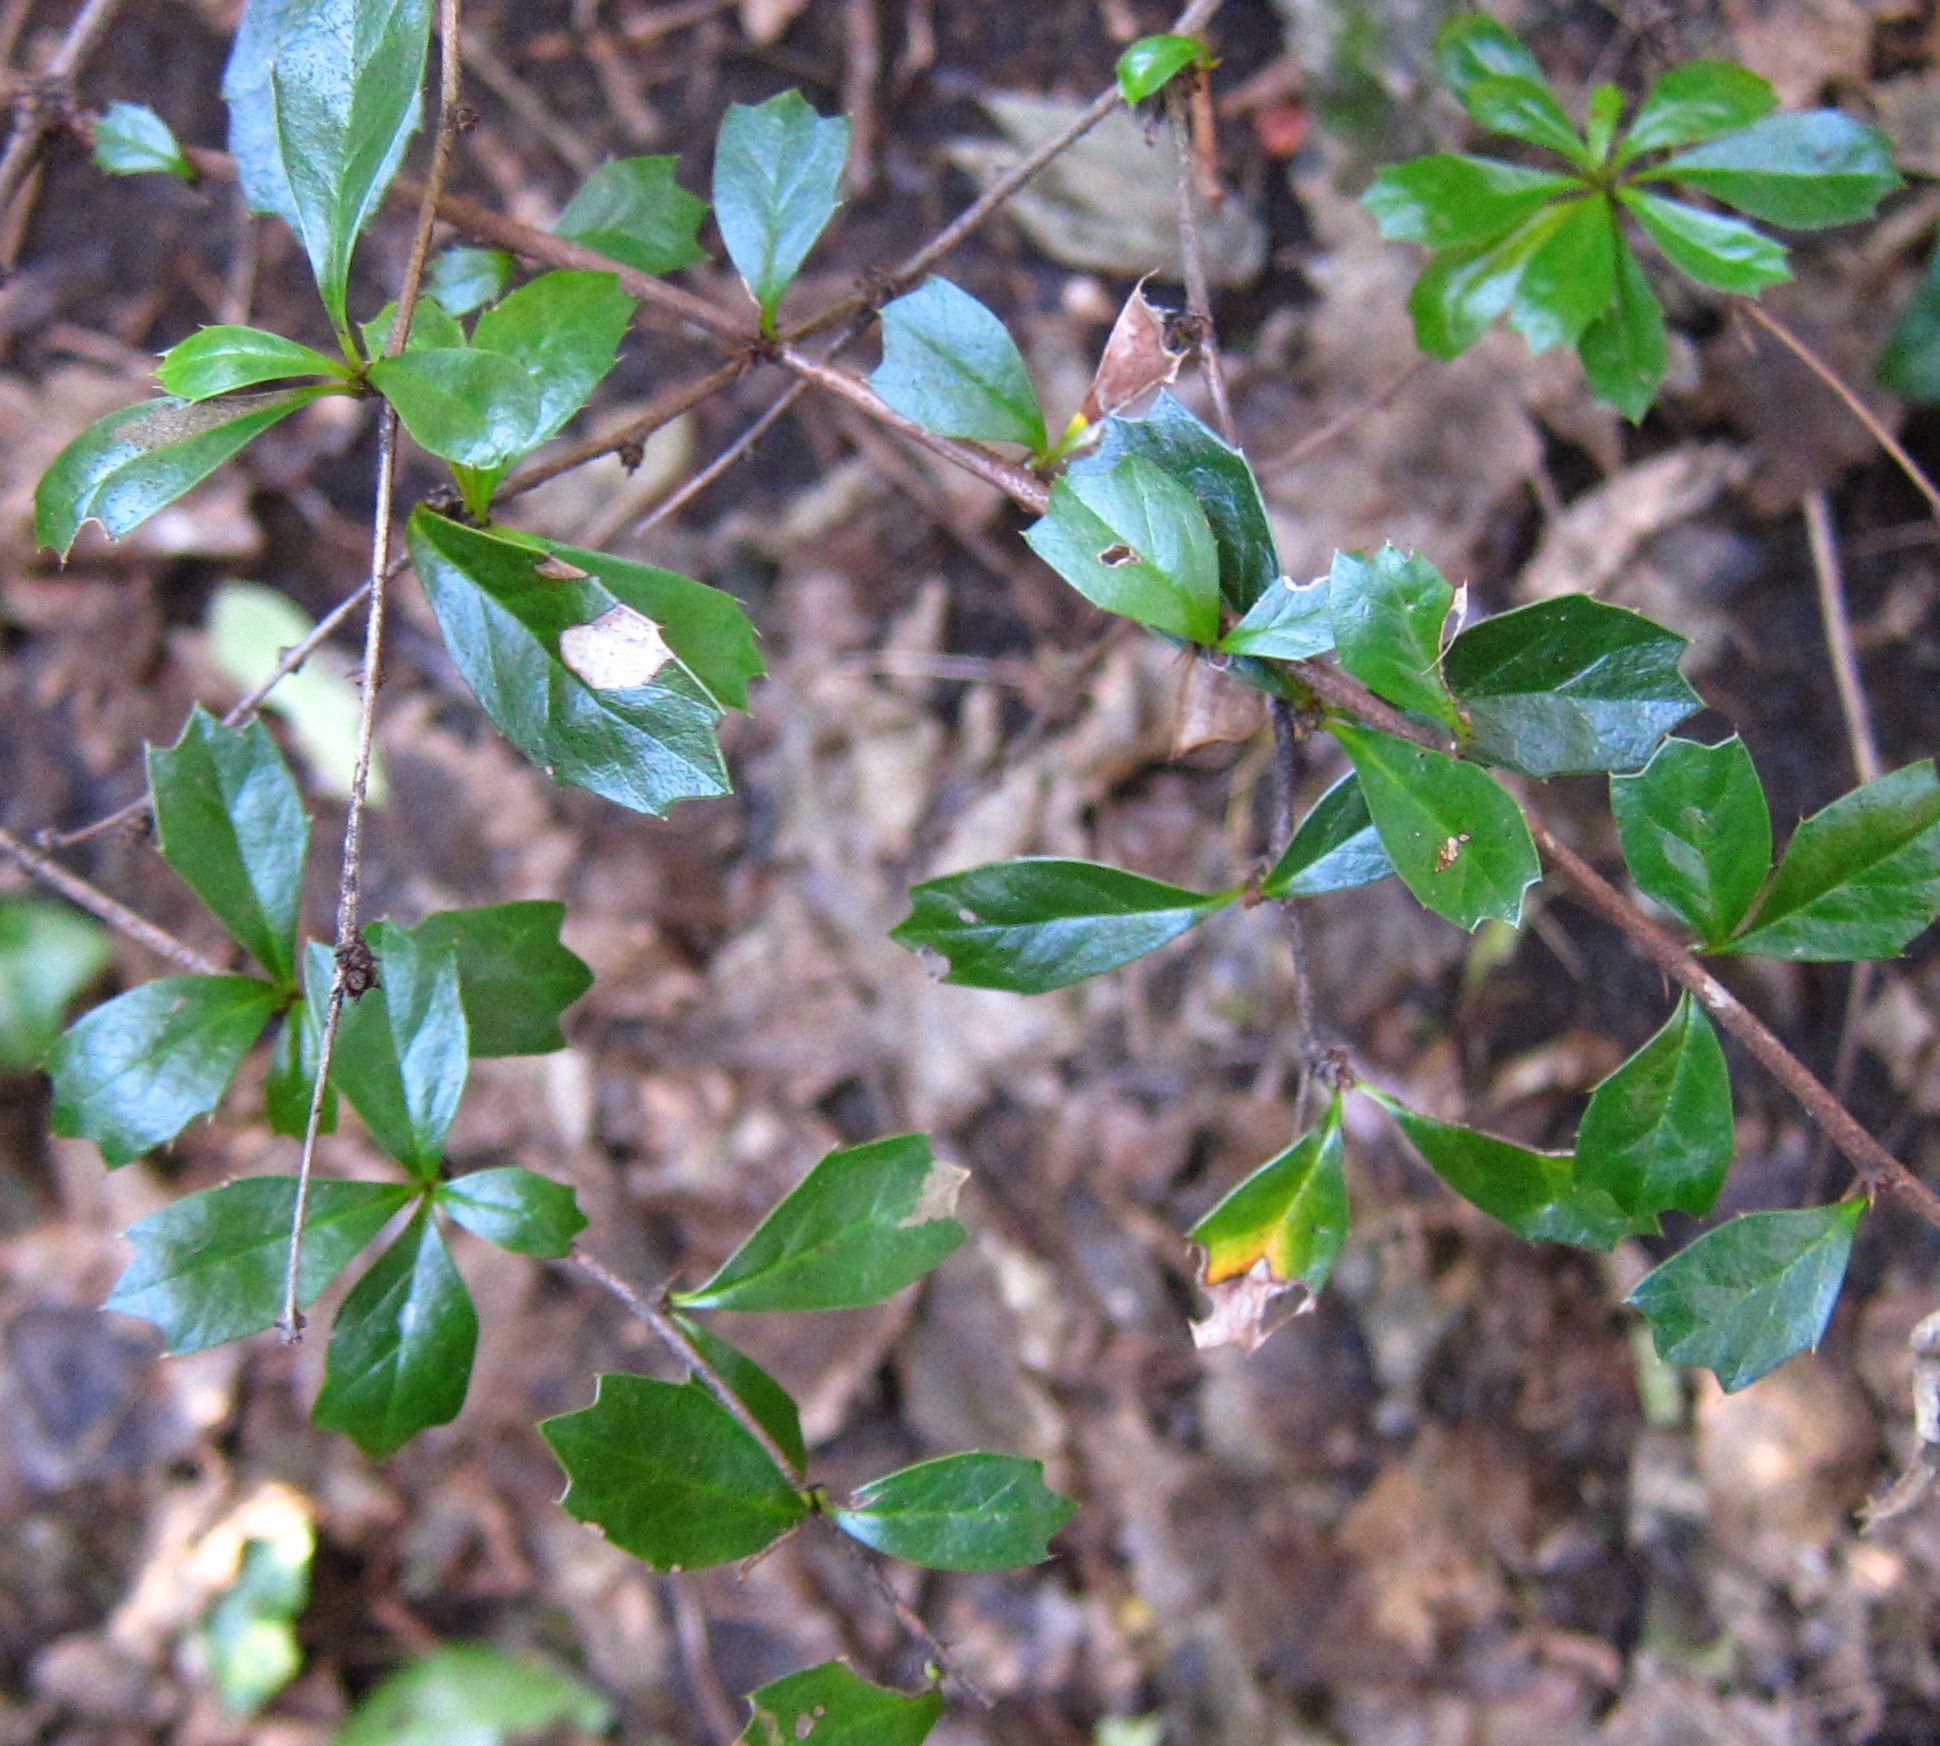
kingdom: Plantae
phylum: Tracheophyta
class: Magnoliopsida
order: Ranunculales
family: Berberidaceae
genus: Berberis
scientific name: Berberis darwinii
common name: Darwin's barberry
